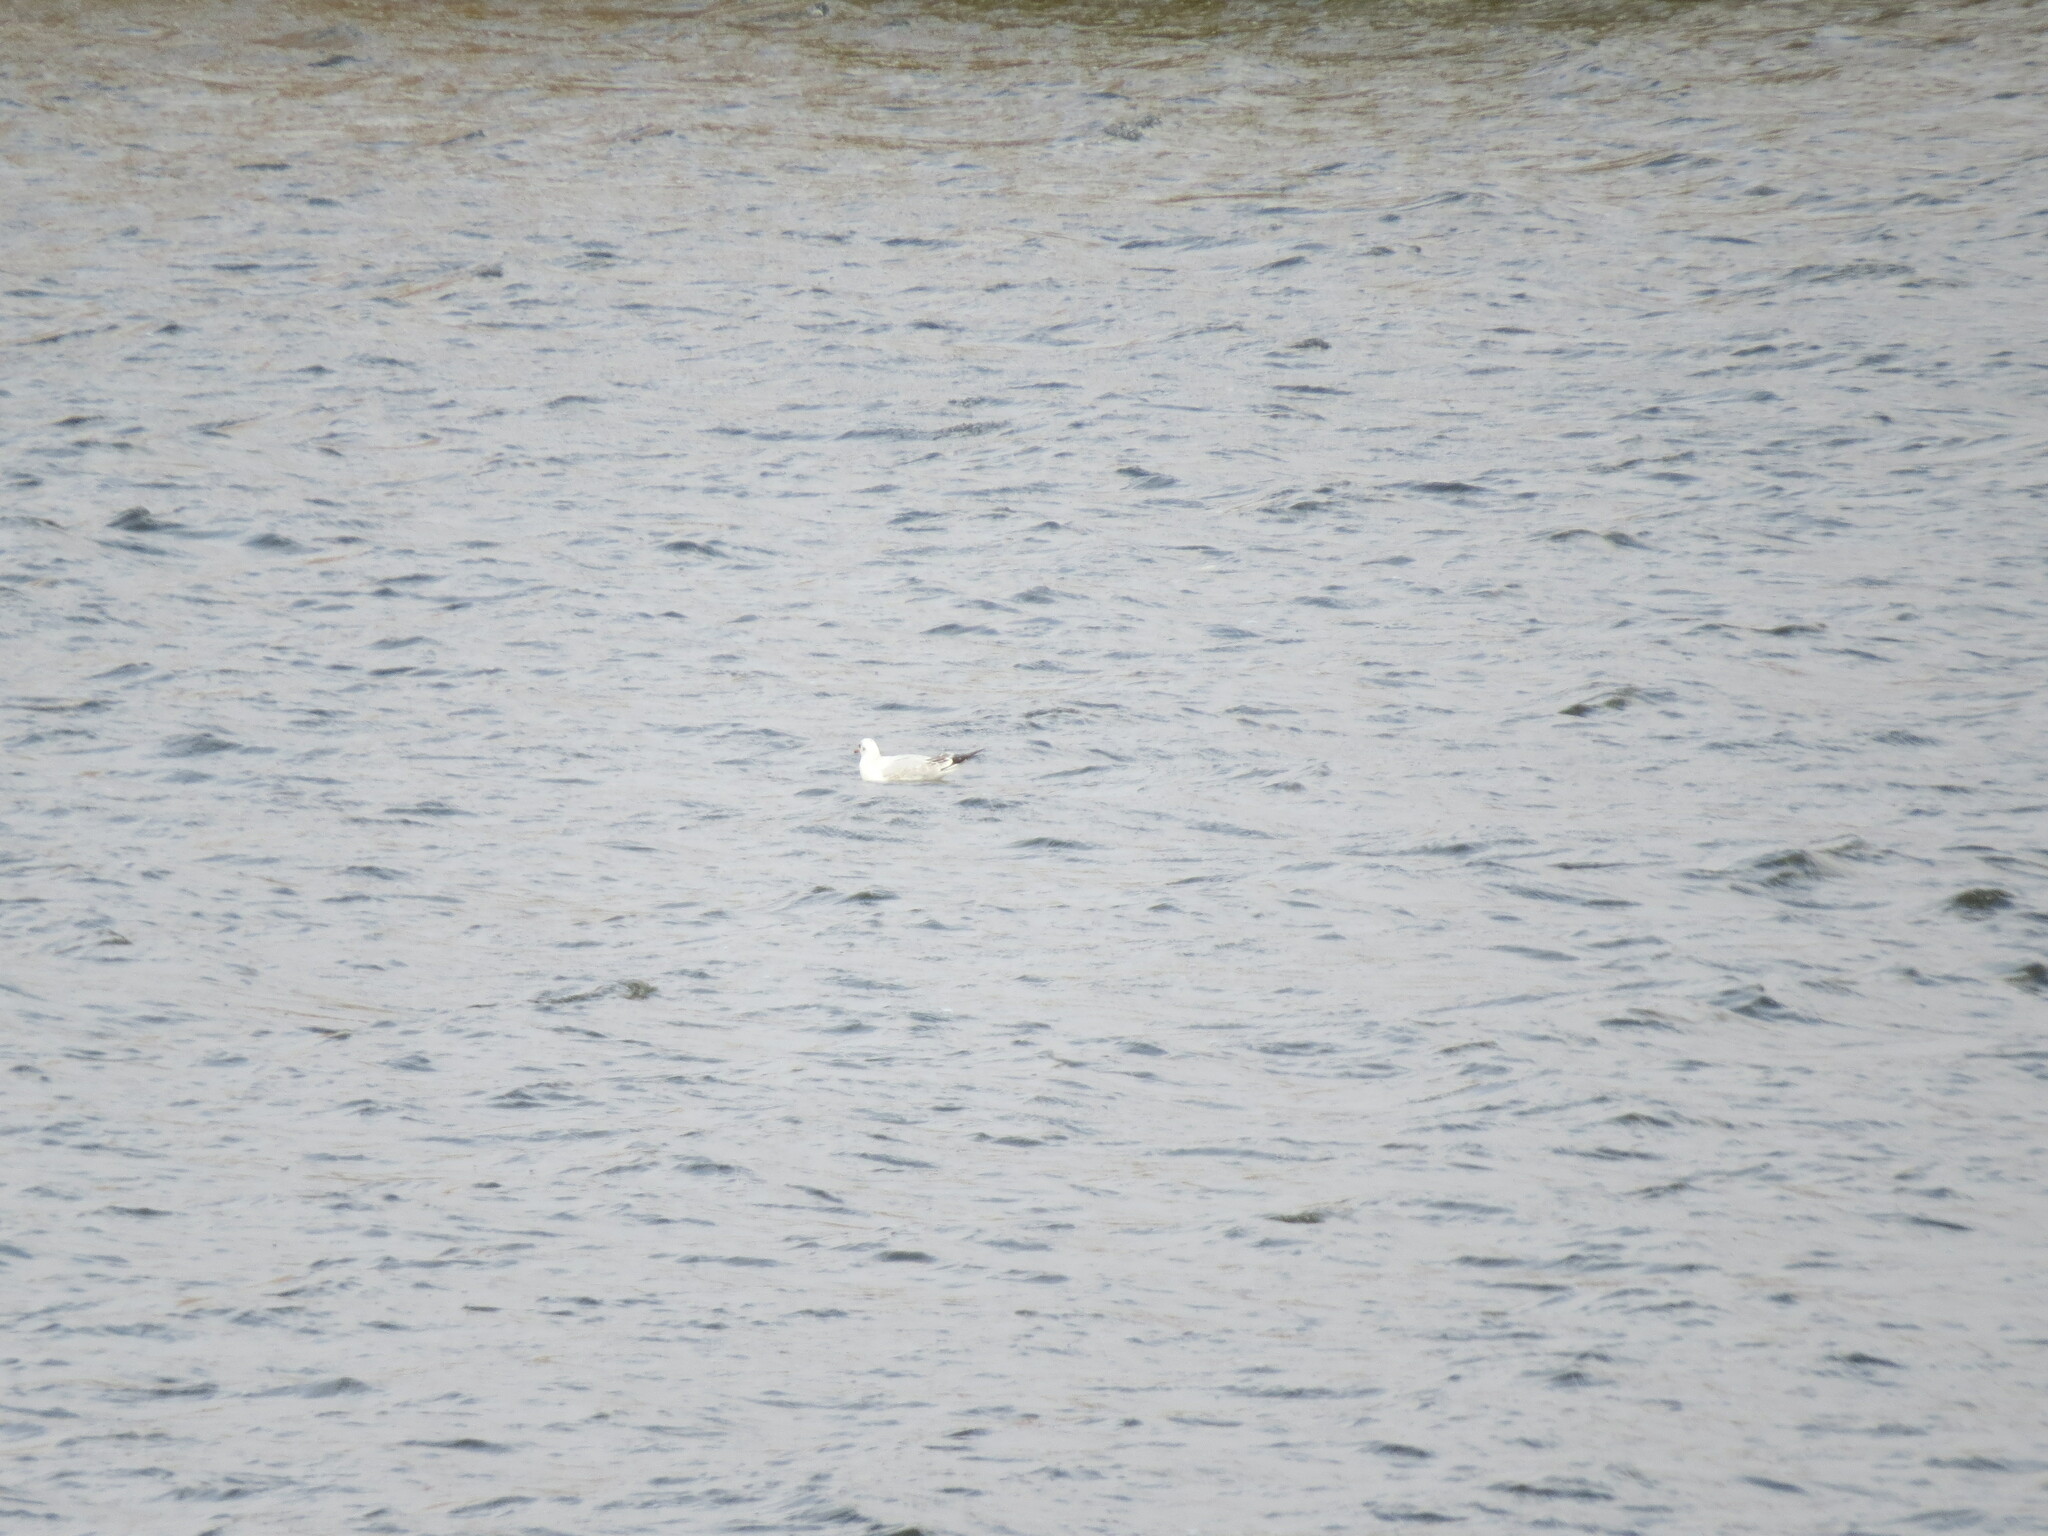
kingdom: Animalia
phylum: Chordata
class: Aves
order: Charadriiformes
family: Laridae
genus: Chroicocephalus
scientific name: Chroicocephalus ridibundus
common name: Black-headed gull
